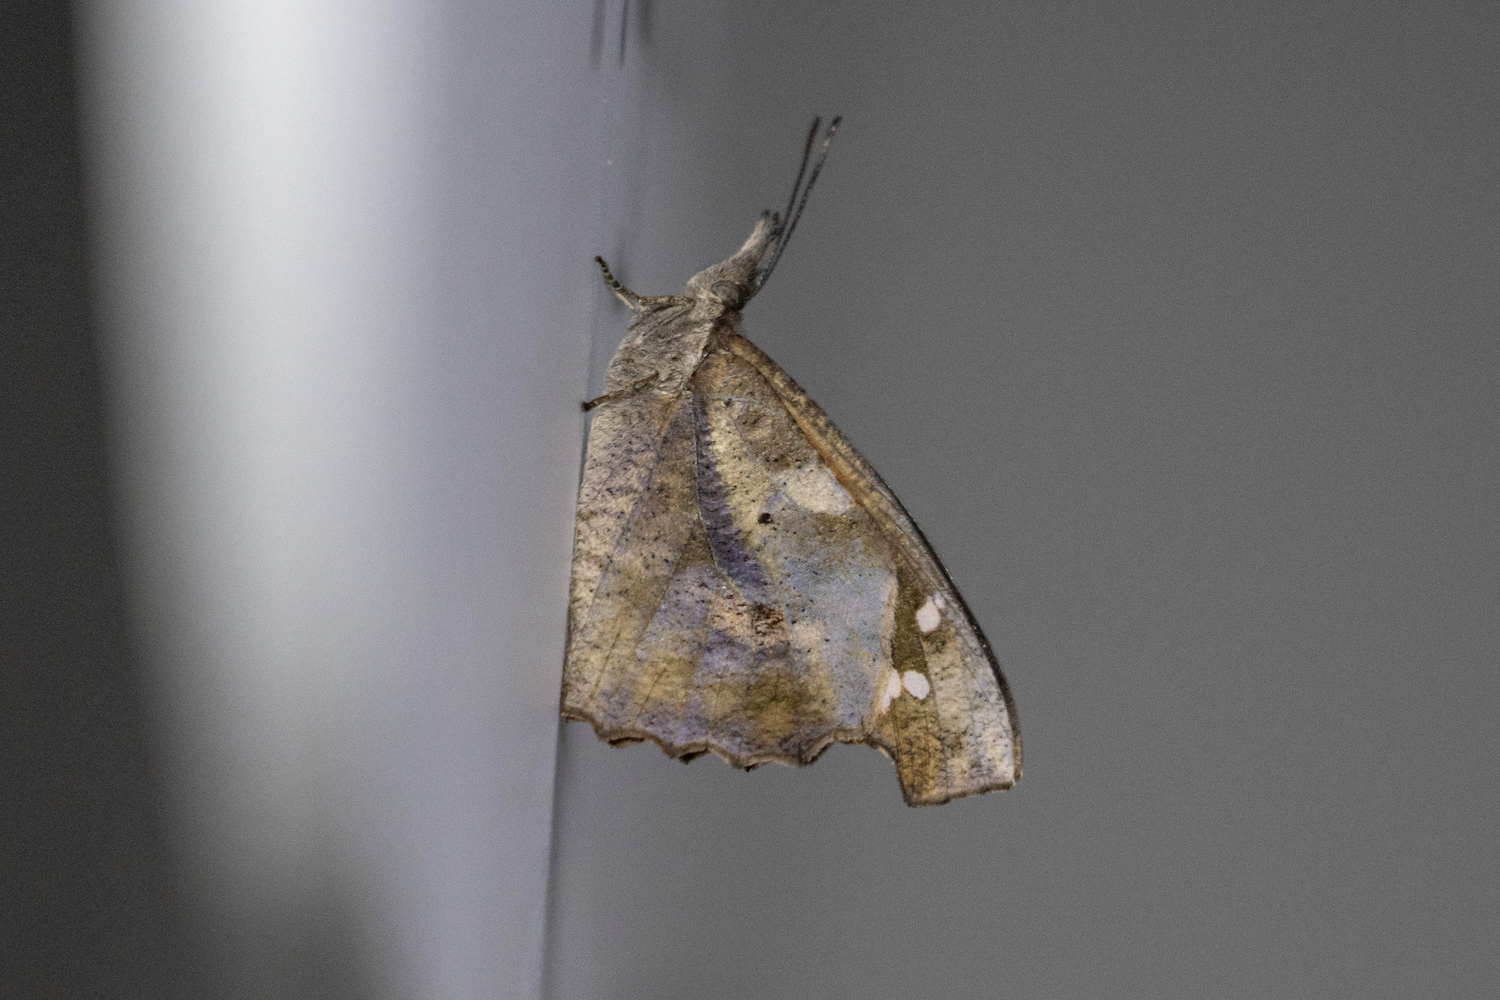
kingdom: Animalia
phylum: Arthropoda
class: Insecta
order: Lepidoptera
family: Nymphalidae
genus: Libythea
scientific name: Libythea lepita
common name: Common beak
